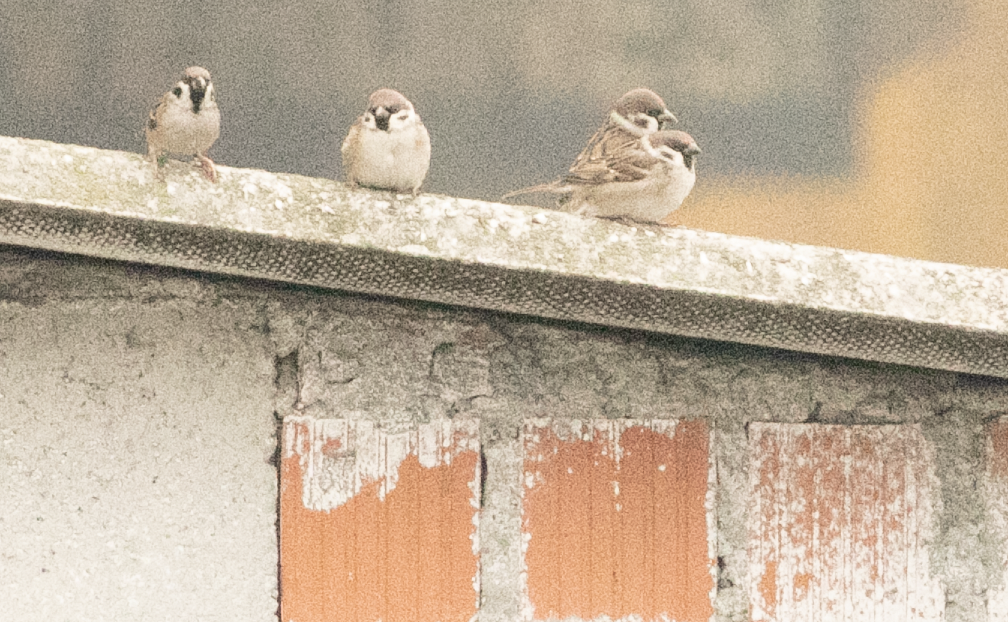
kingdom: Animalia
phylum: Chordata
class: Aves
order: Passeriformes
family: Passeridae
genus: Passer
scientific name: Passer montanus
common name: Eurasian tree sparrow
